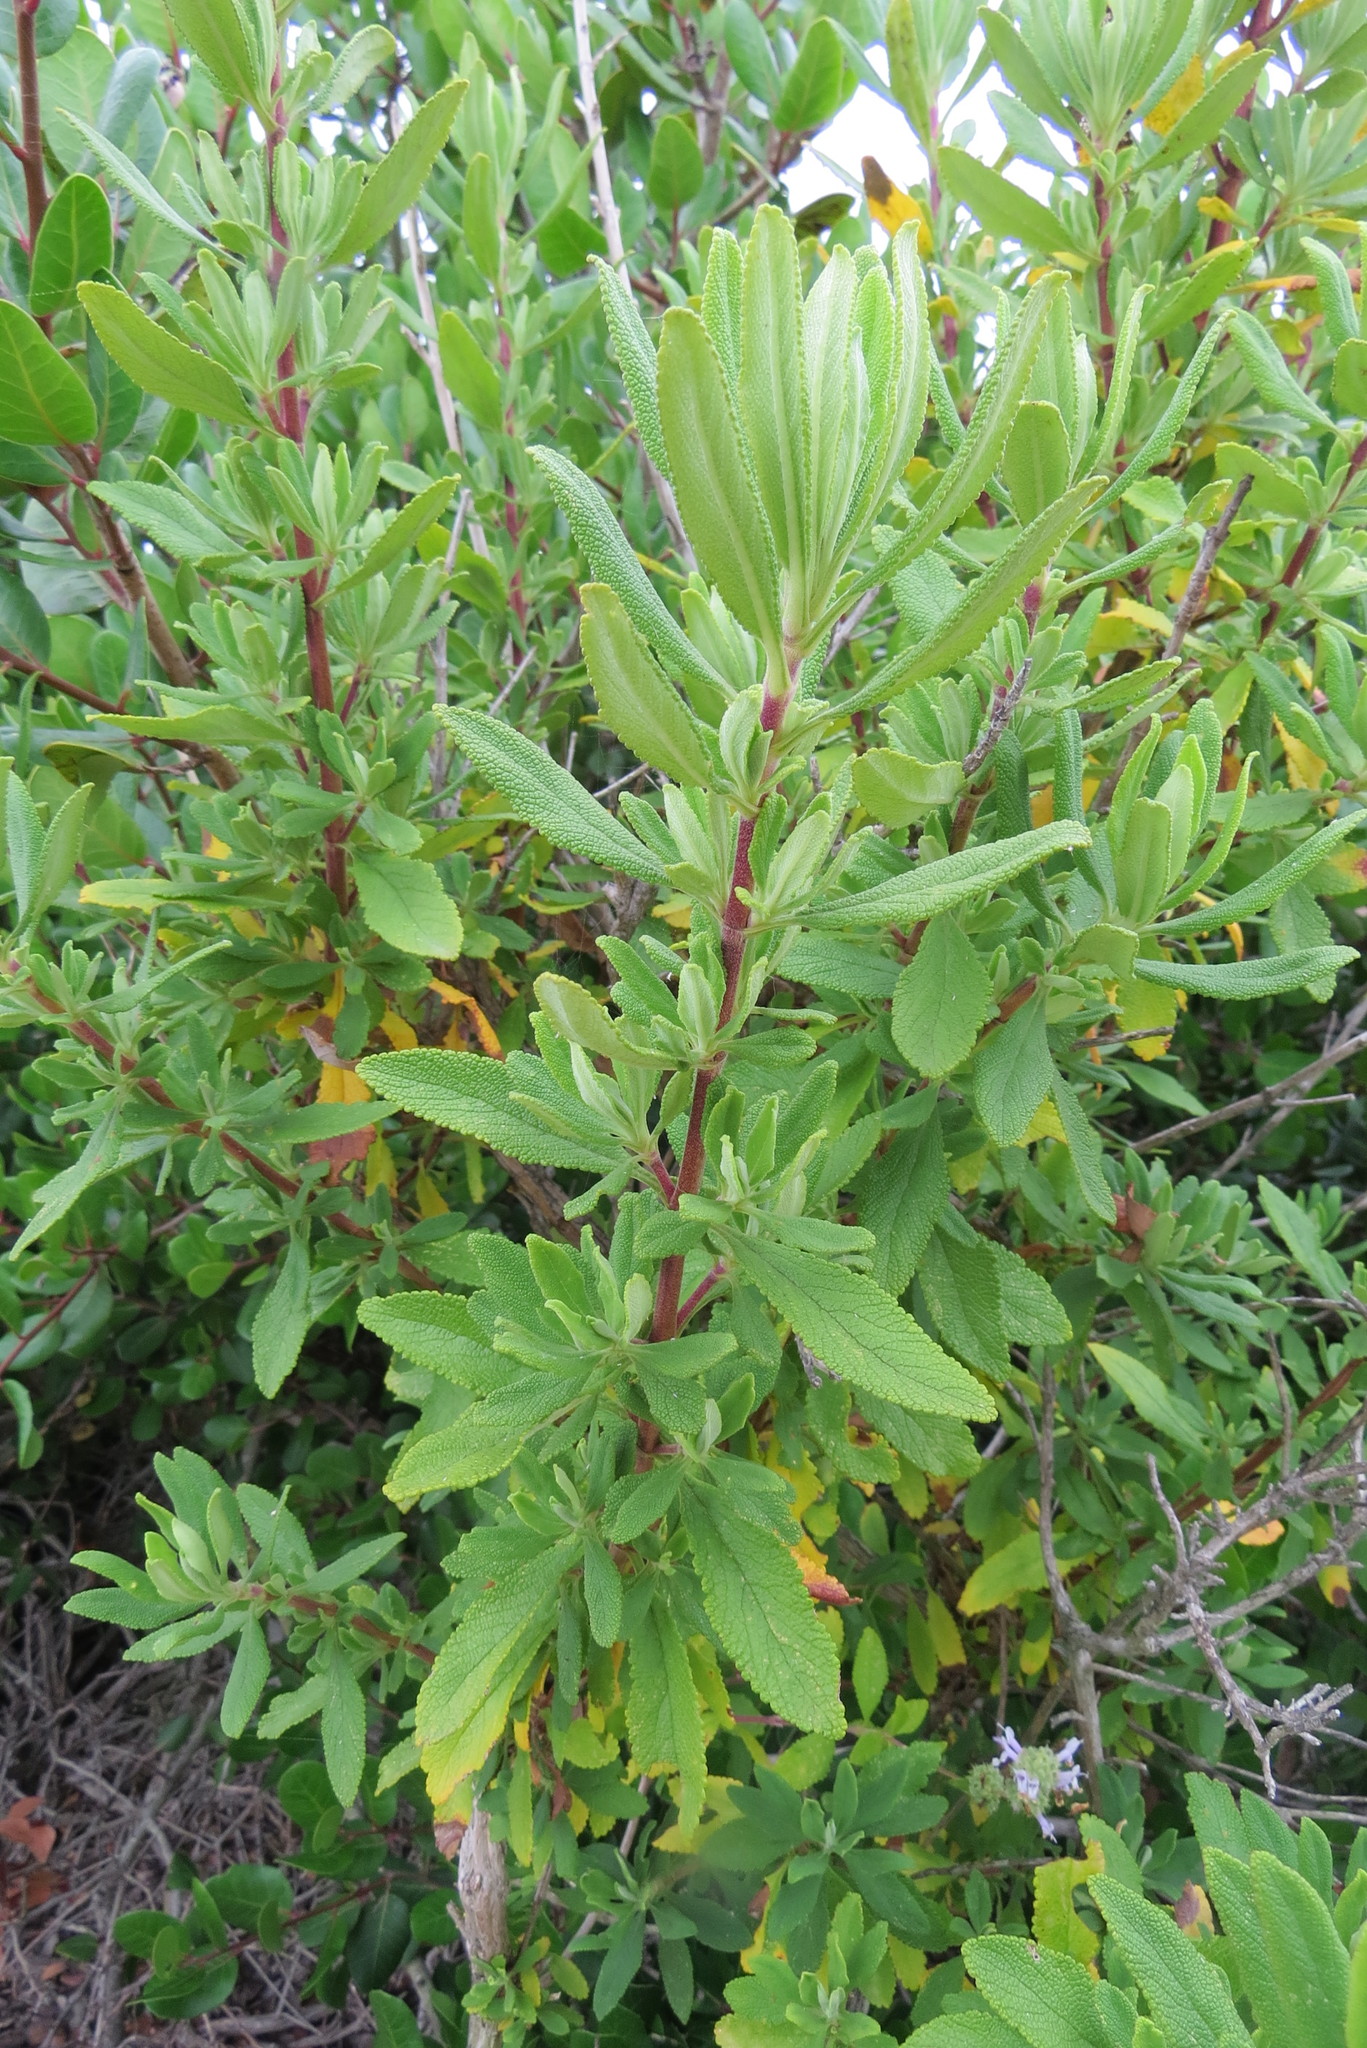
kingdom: Plantae
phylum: Tracheophyta
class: Magnoliopsida
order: Lamiales
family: Lamiaceae
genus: Salvia
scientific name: Salvia mellifera
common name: Black sage
